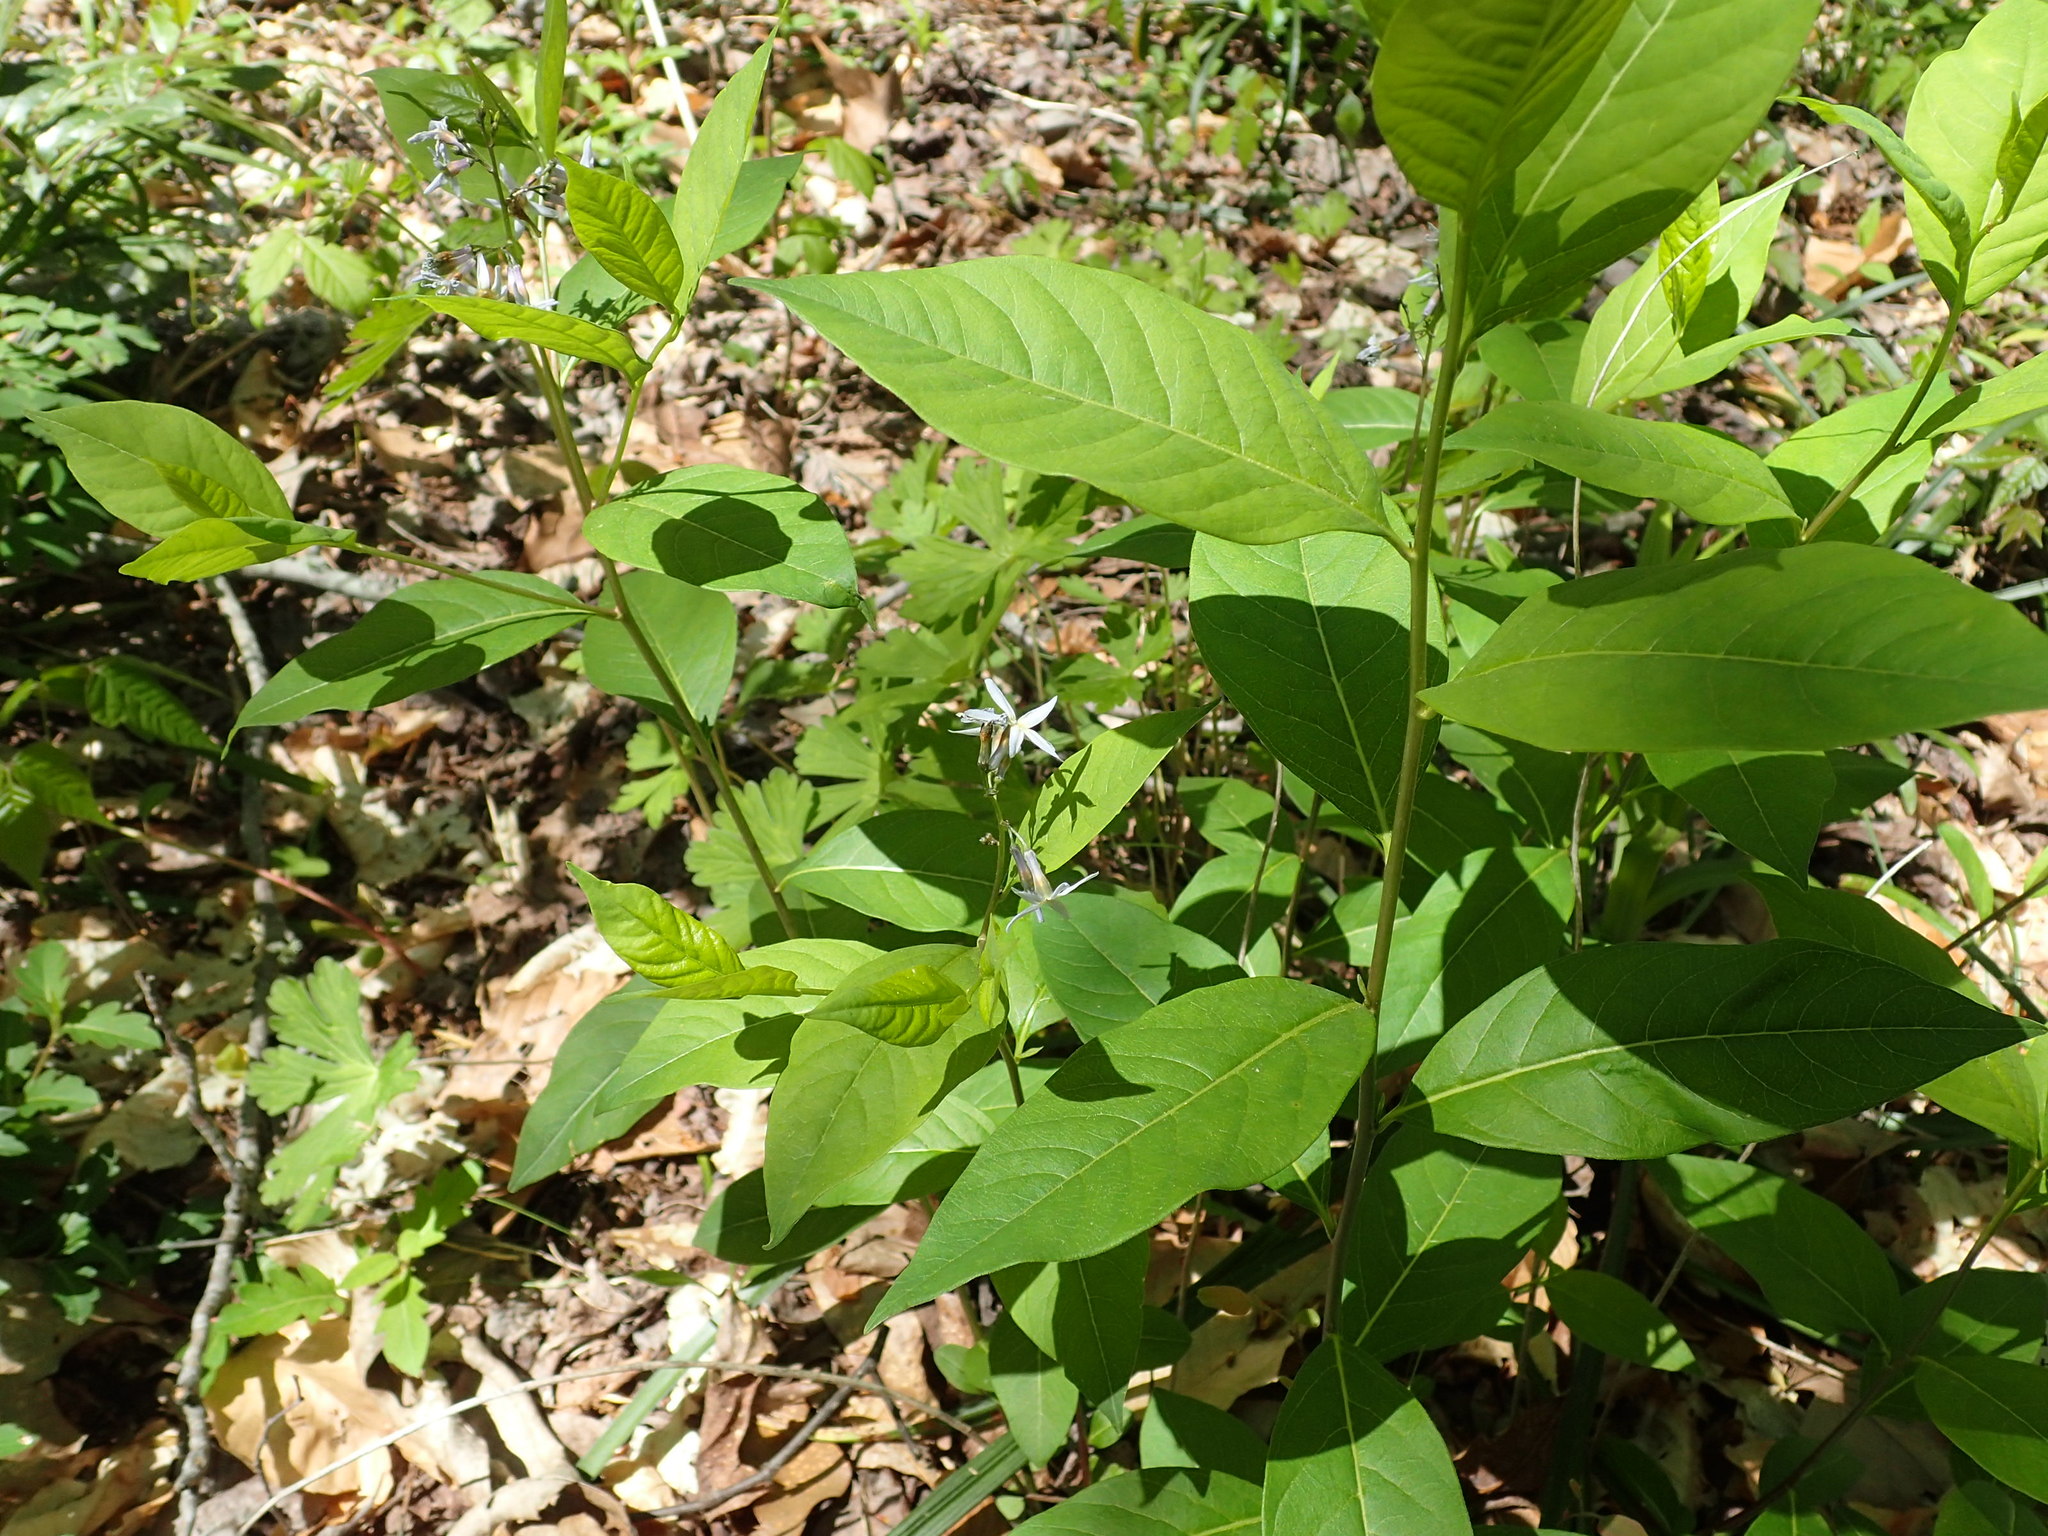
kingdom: Plantae
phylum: Tracheophyta
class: Magnoliopsida
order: Gentianales
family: Apocynaceae
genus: Amsonia
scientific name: Amsonia tabernaemontana
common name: Texas-star
